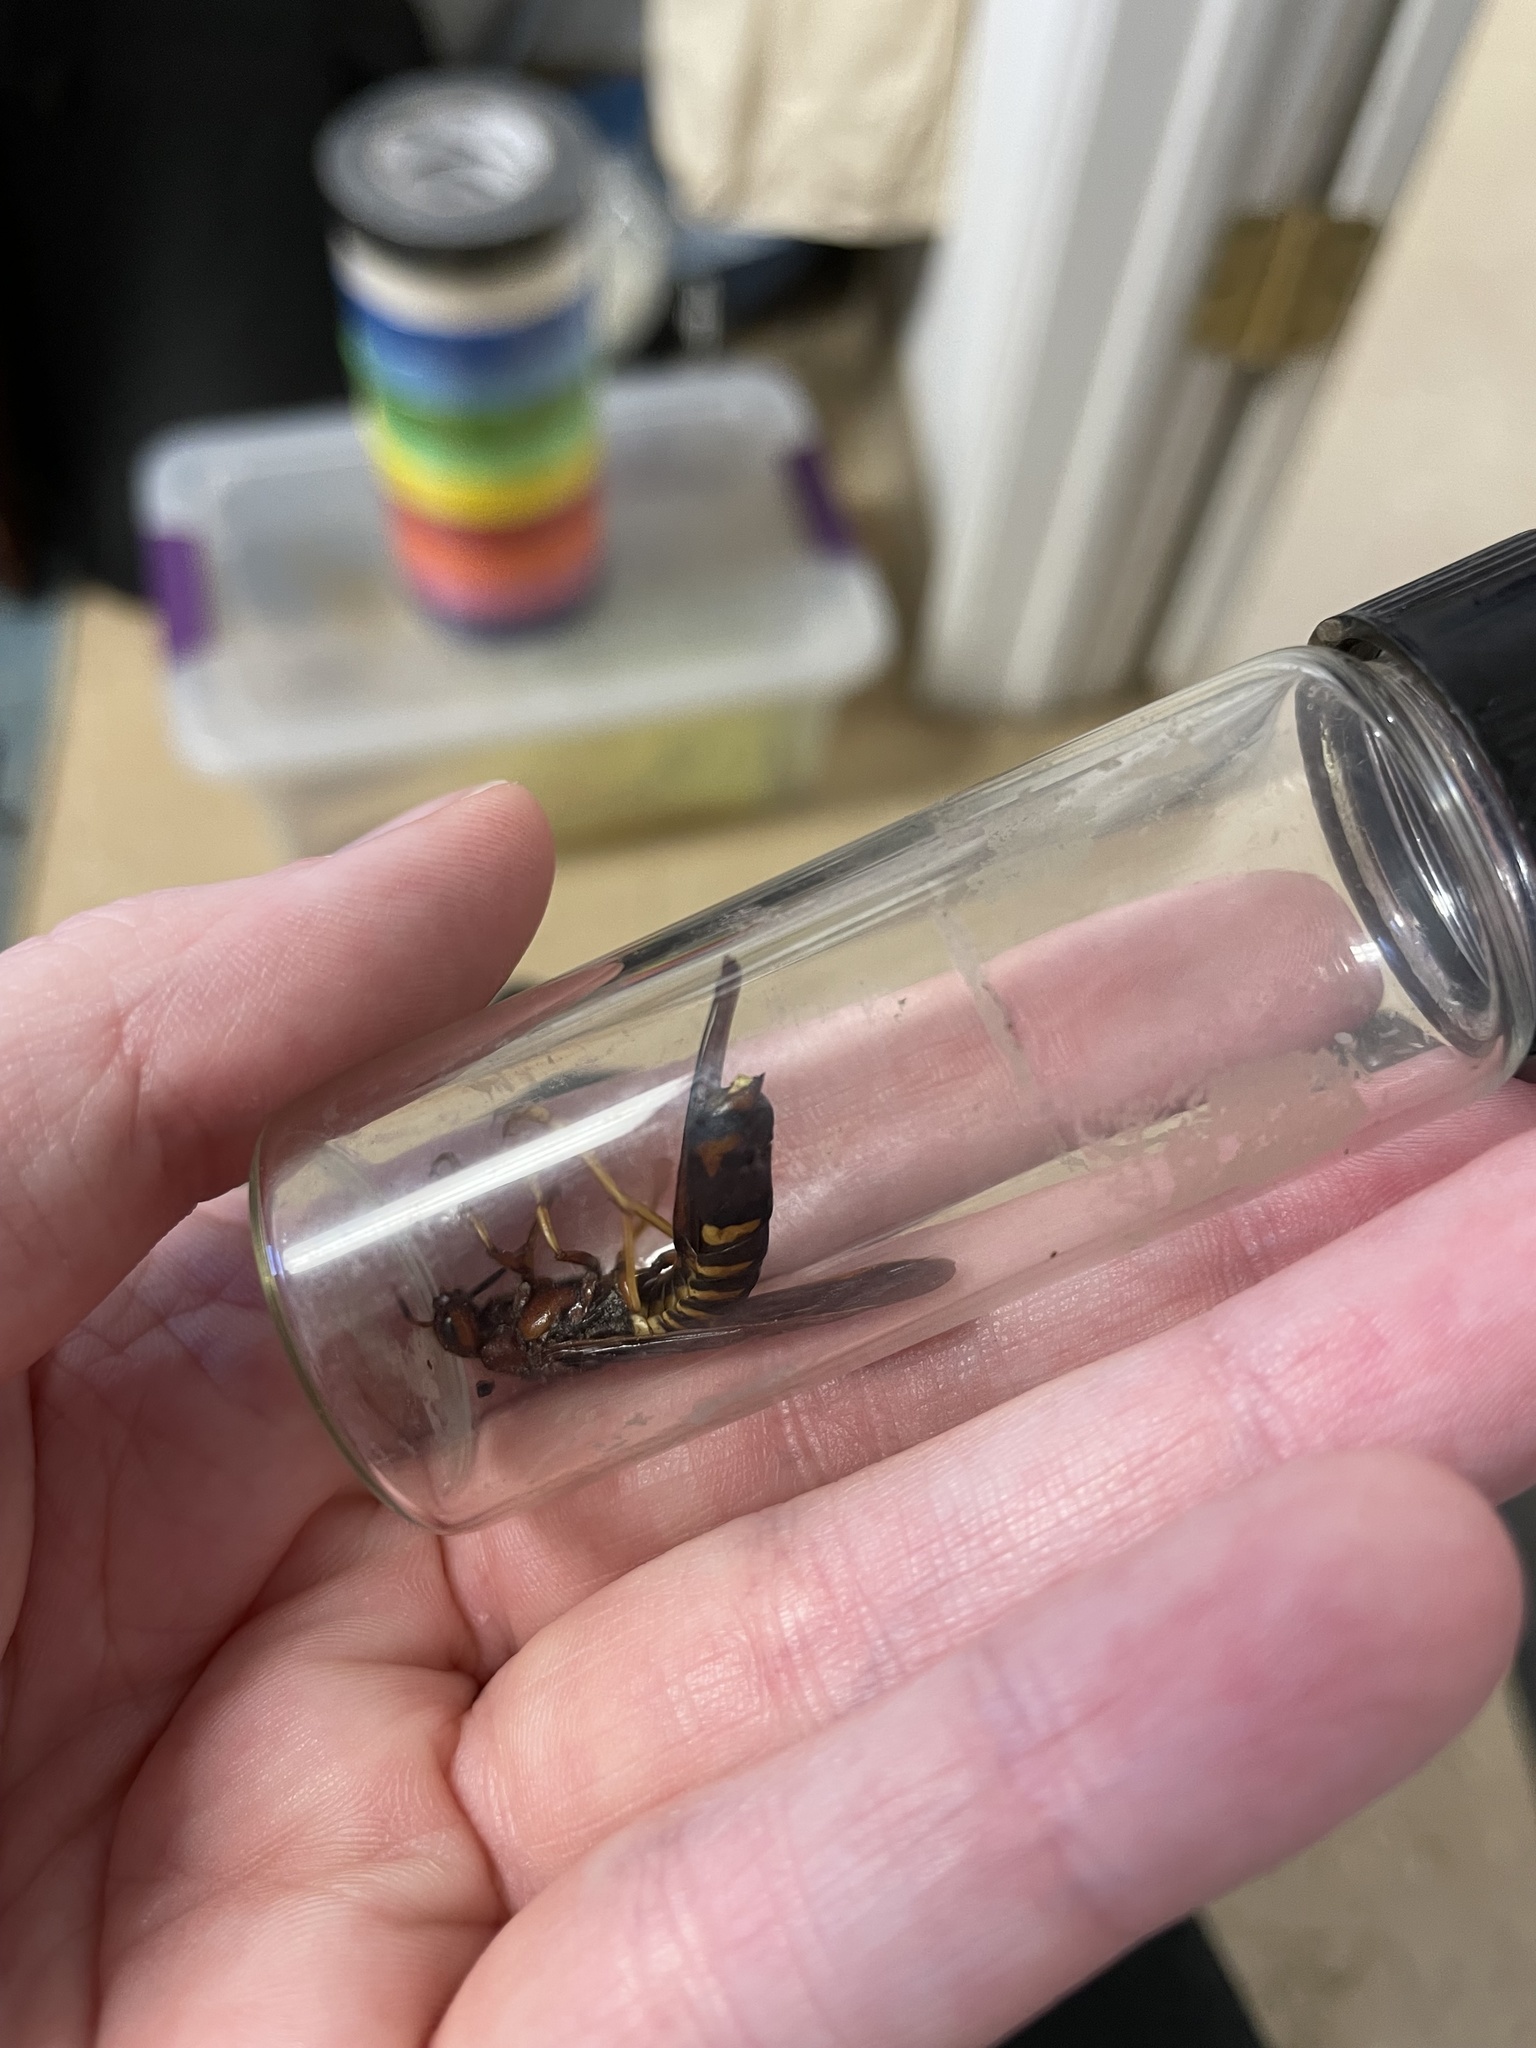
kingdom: Animalia
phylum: Arthropoda
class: Insecta
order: Hymenoptera
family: Siricidae
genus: Tremex
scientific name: Tremex columba
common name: Wasp
